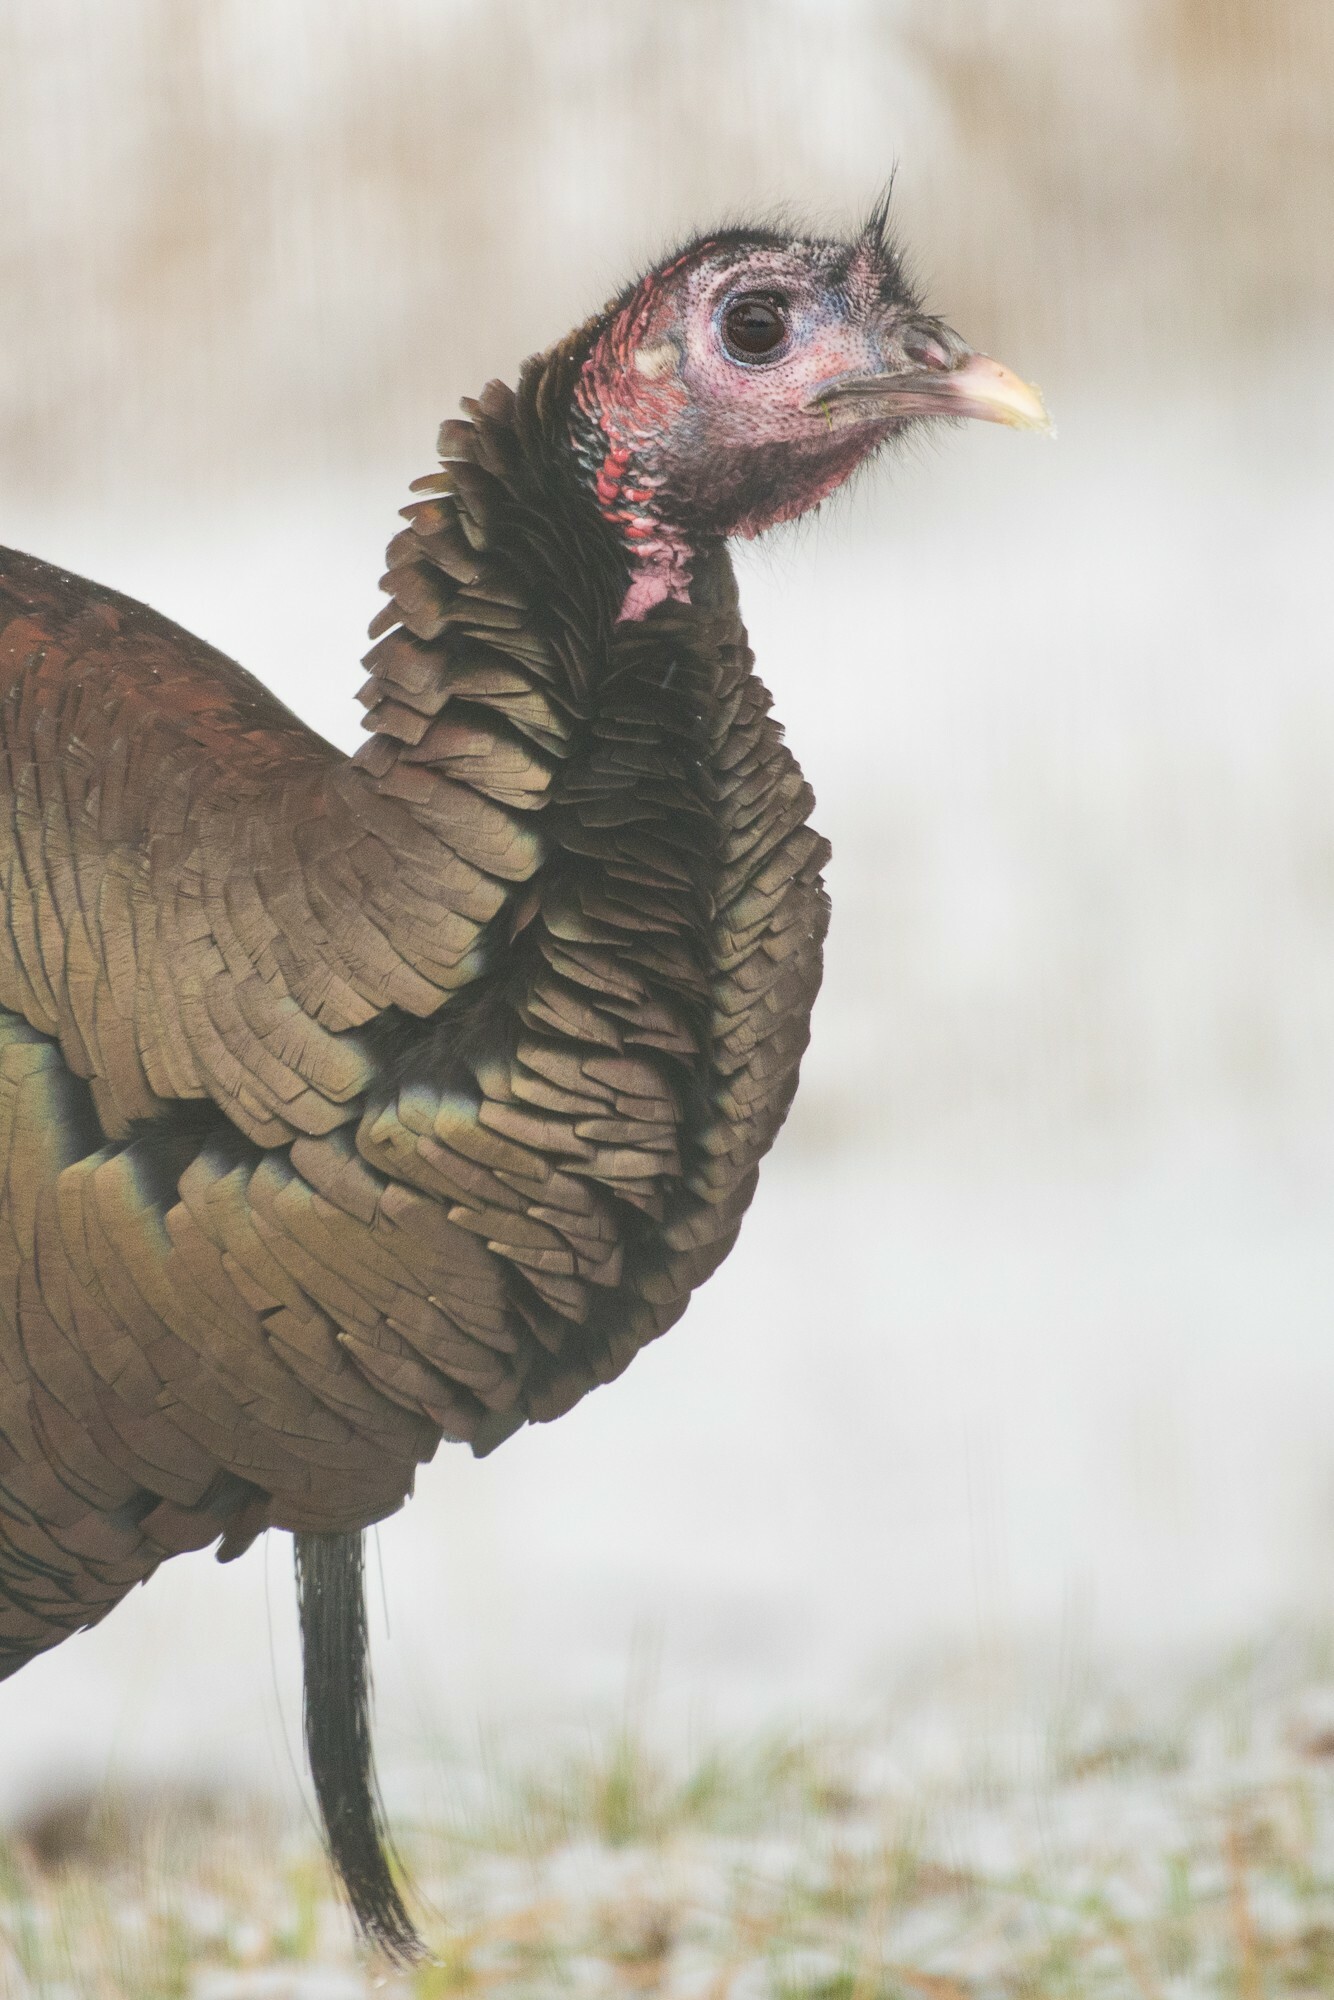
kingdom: Animalia
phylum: Chordata
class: Aves
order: Galliformes
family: Phasianidae
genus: Meleagris
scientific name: Meleagris gallopavo
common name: Wild turkey
